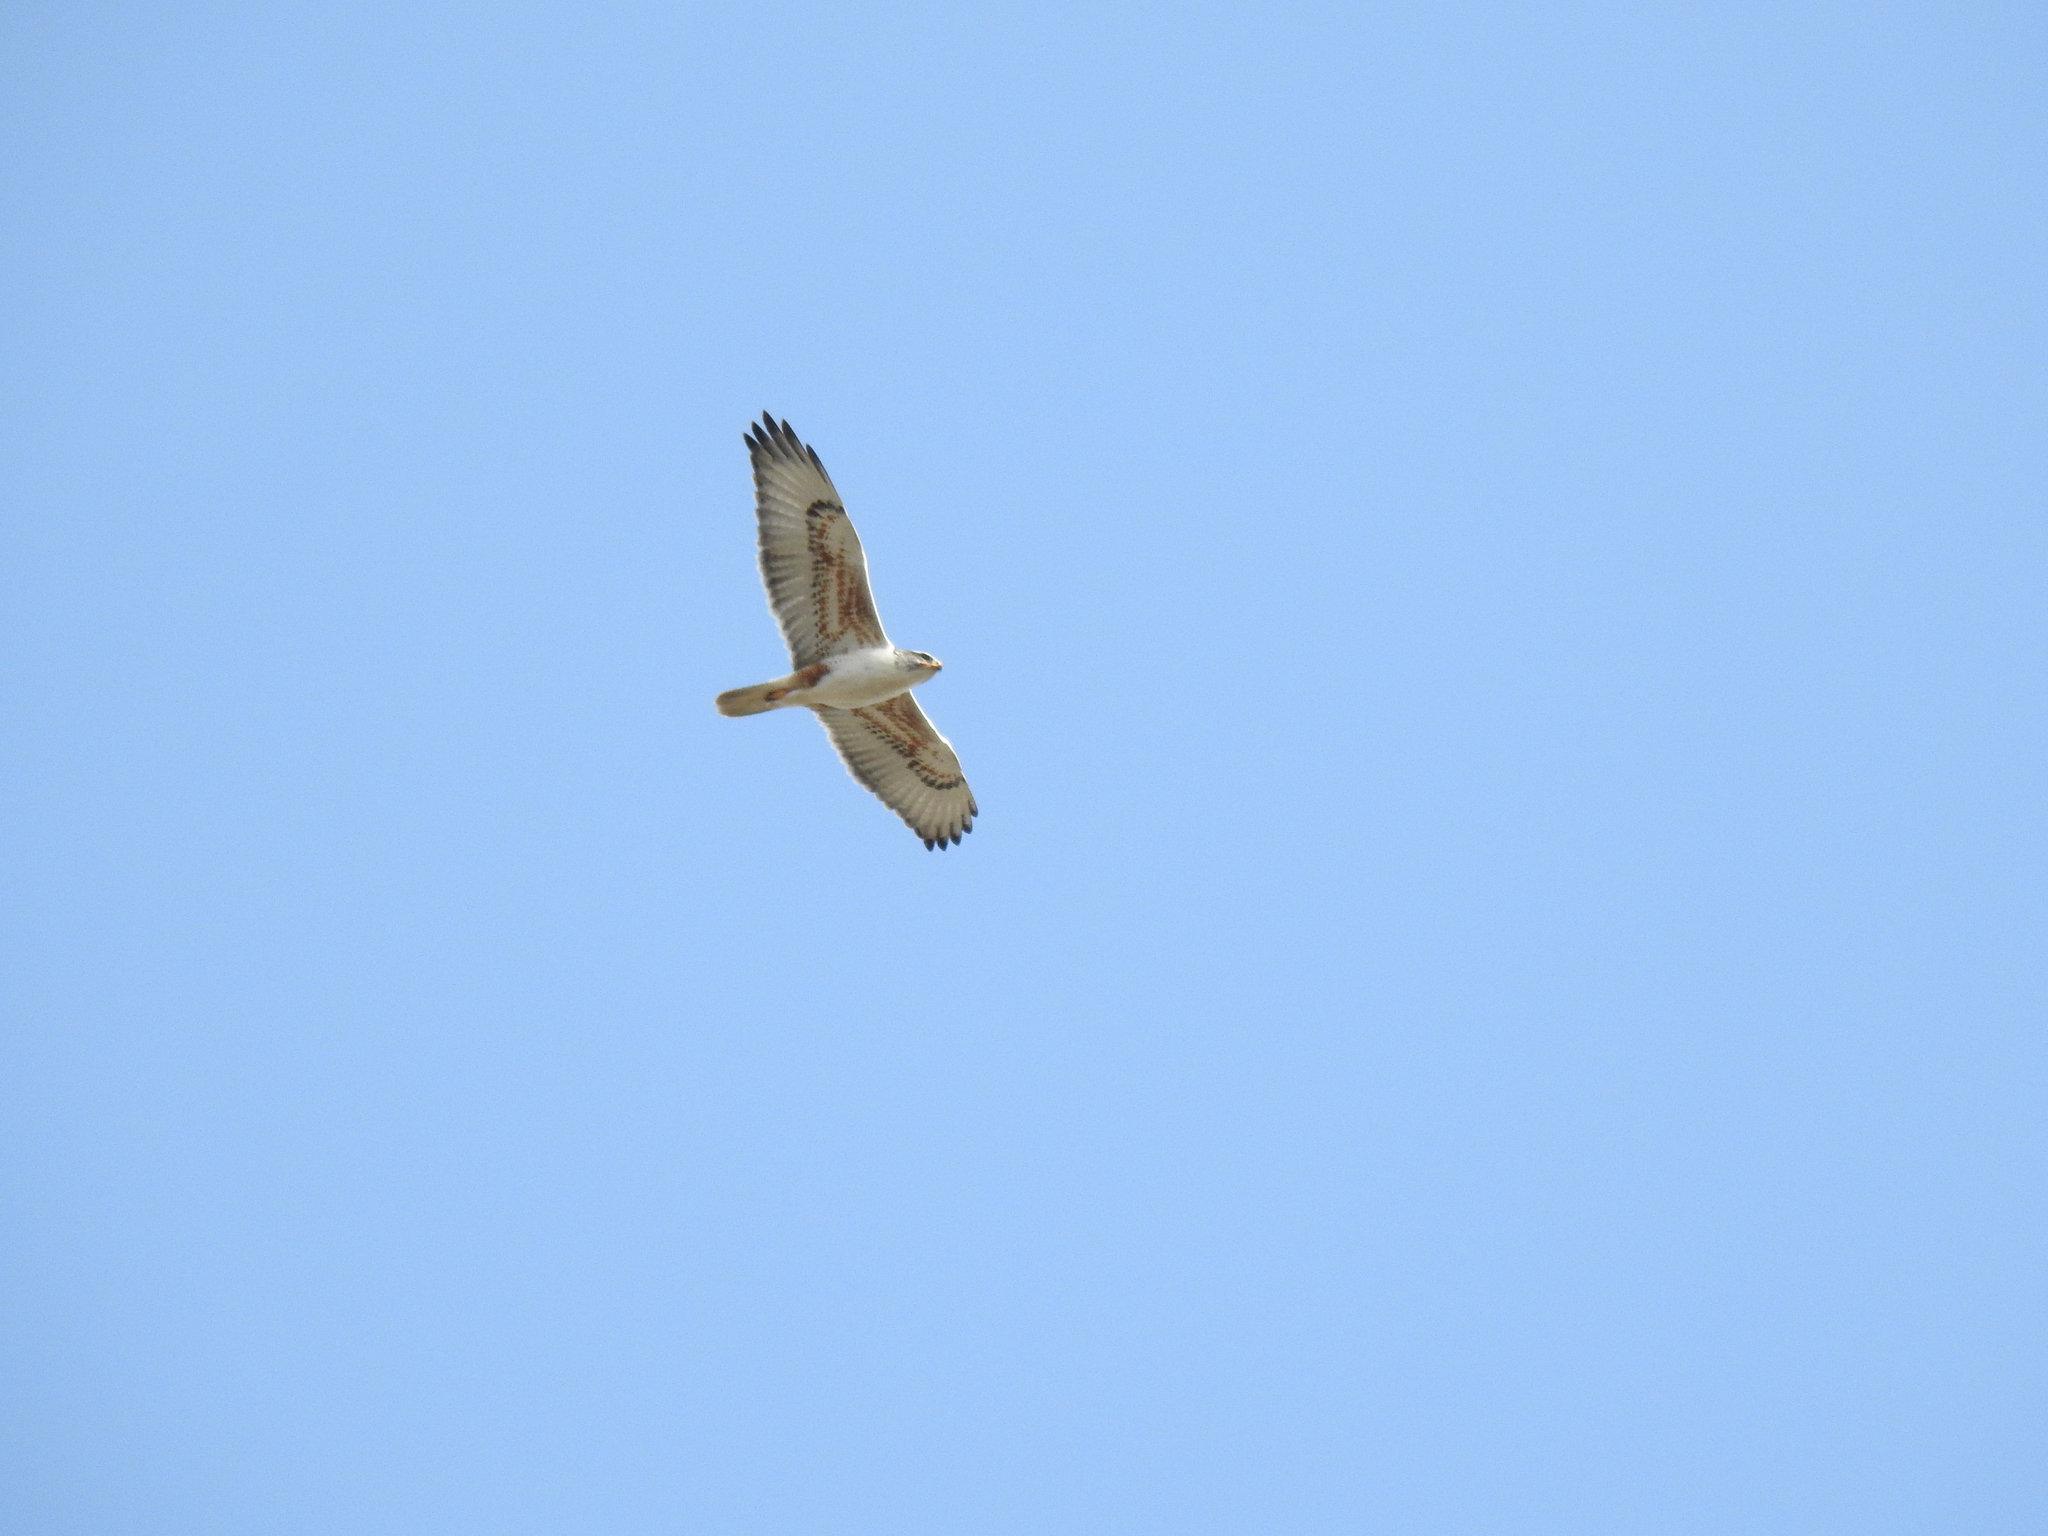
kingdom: Animalia
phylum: Chordata
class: Aves
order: Accipitriformes
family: Accipitridae
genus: Buteo
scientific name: Buteo regalis
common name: Ferruginous hawk
